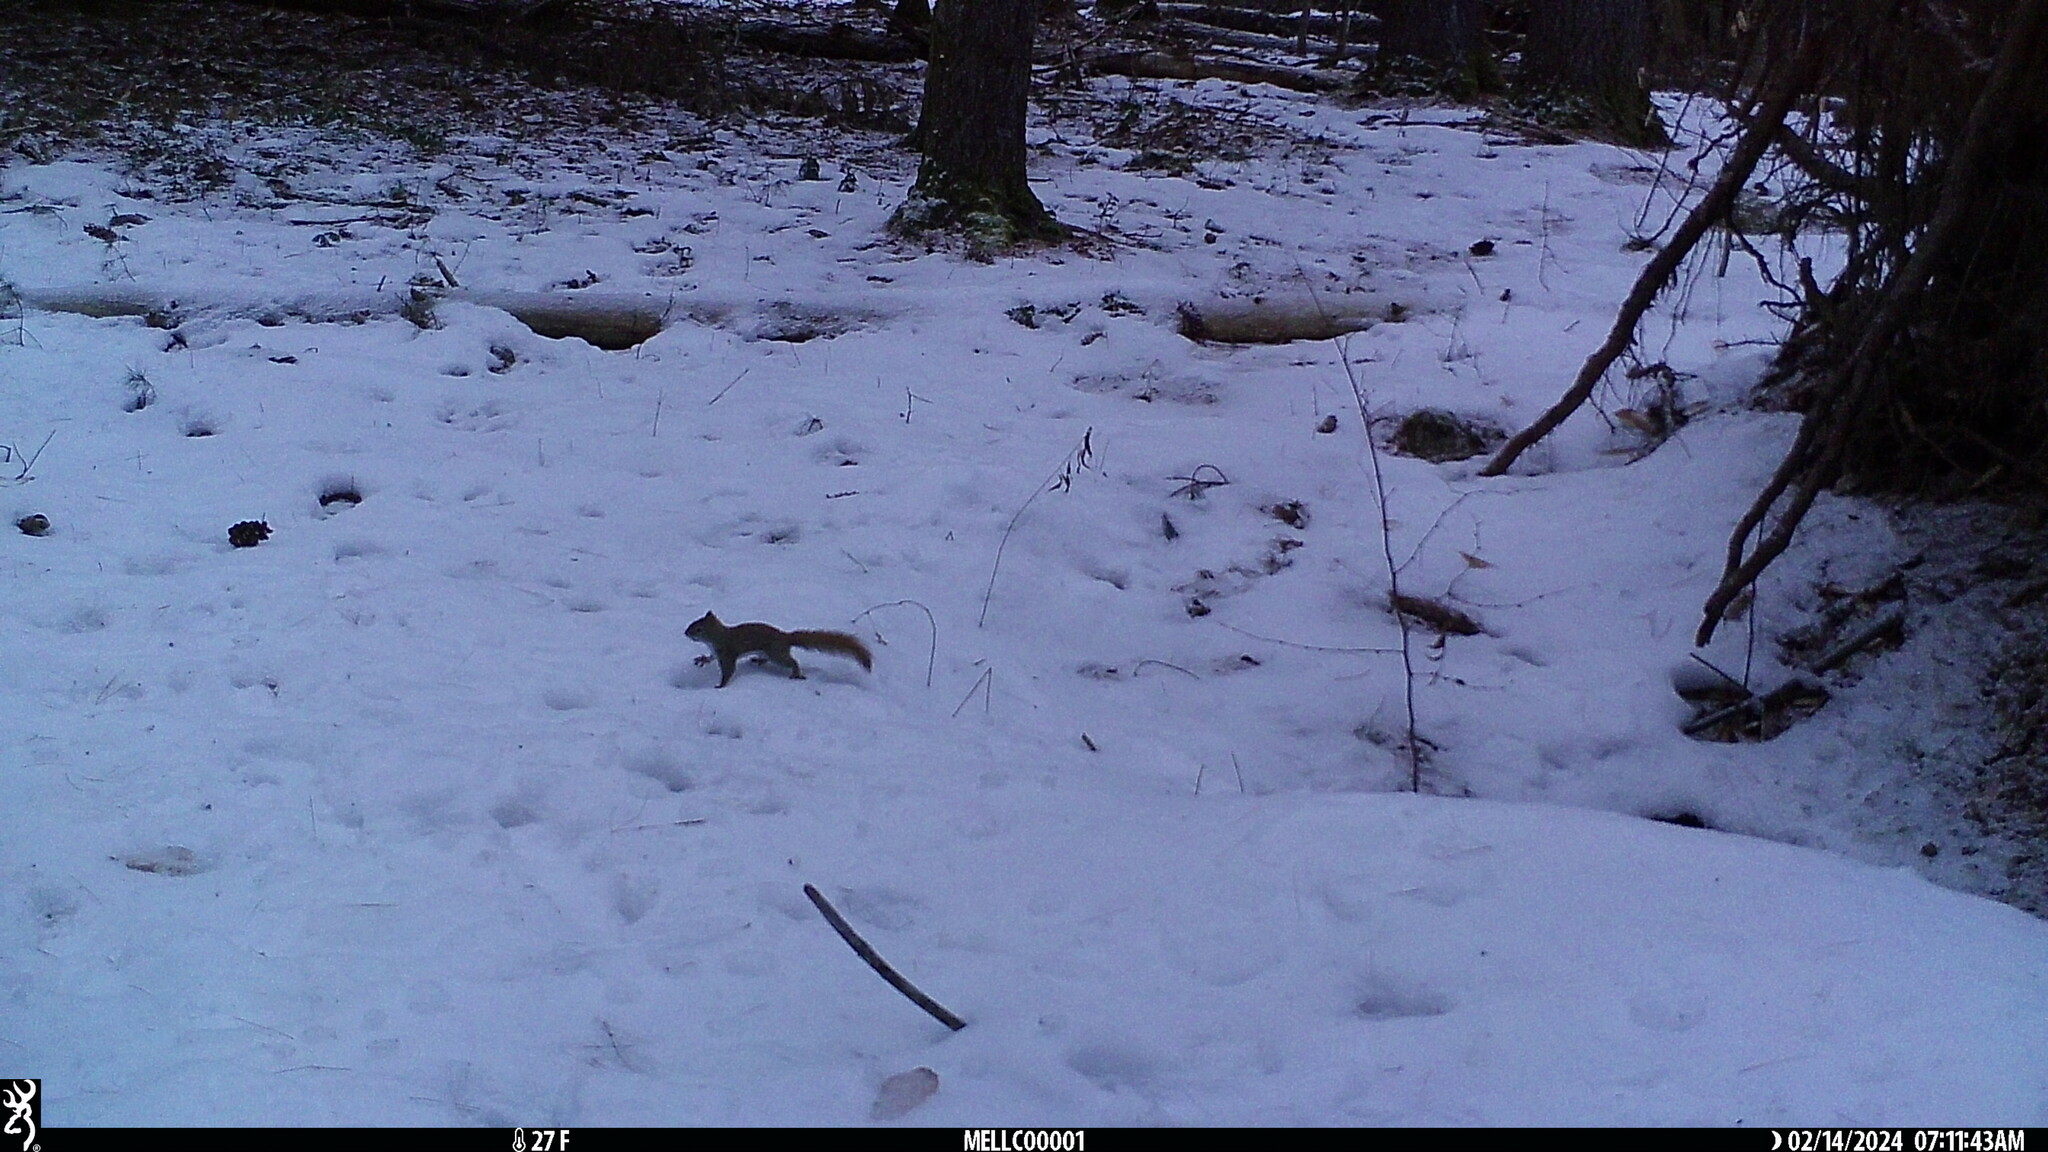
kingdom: Animalia
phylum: Chordata
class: Mammalia
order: Rodentia
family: Sciuridae
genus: Tamiasciurus
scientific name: Tamiasciurus hudsonicus
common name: Red squirrel
